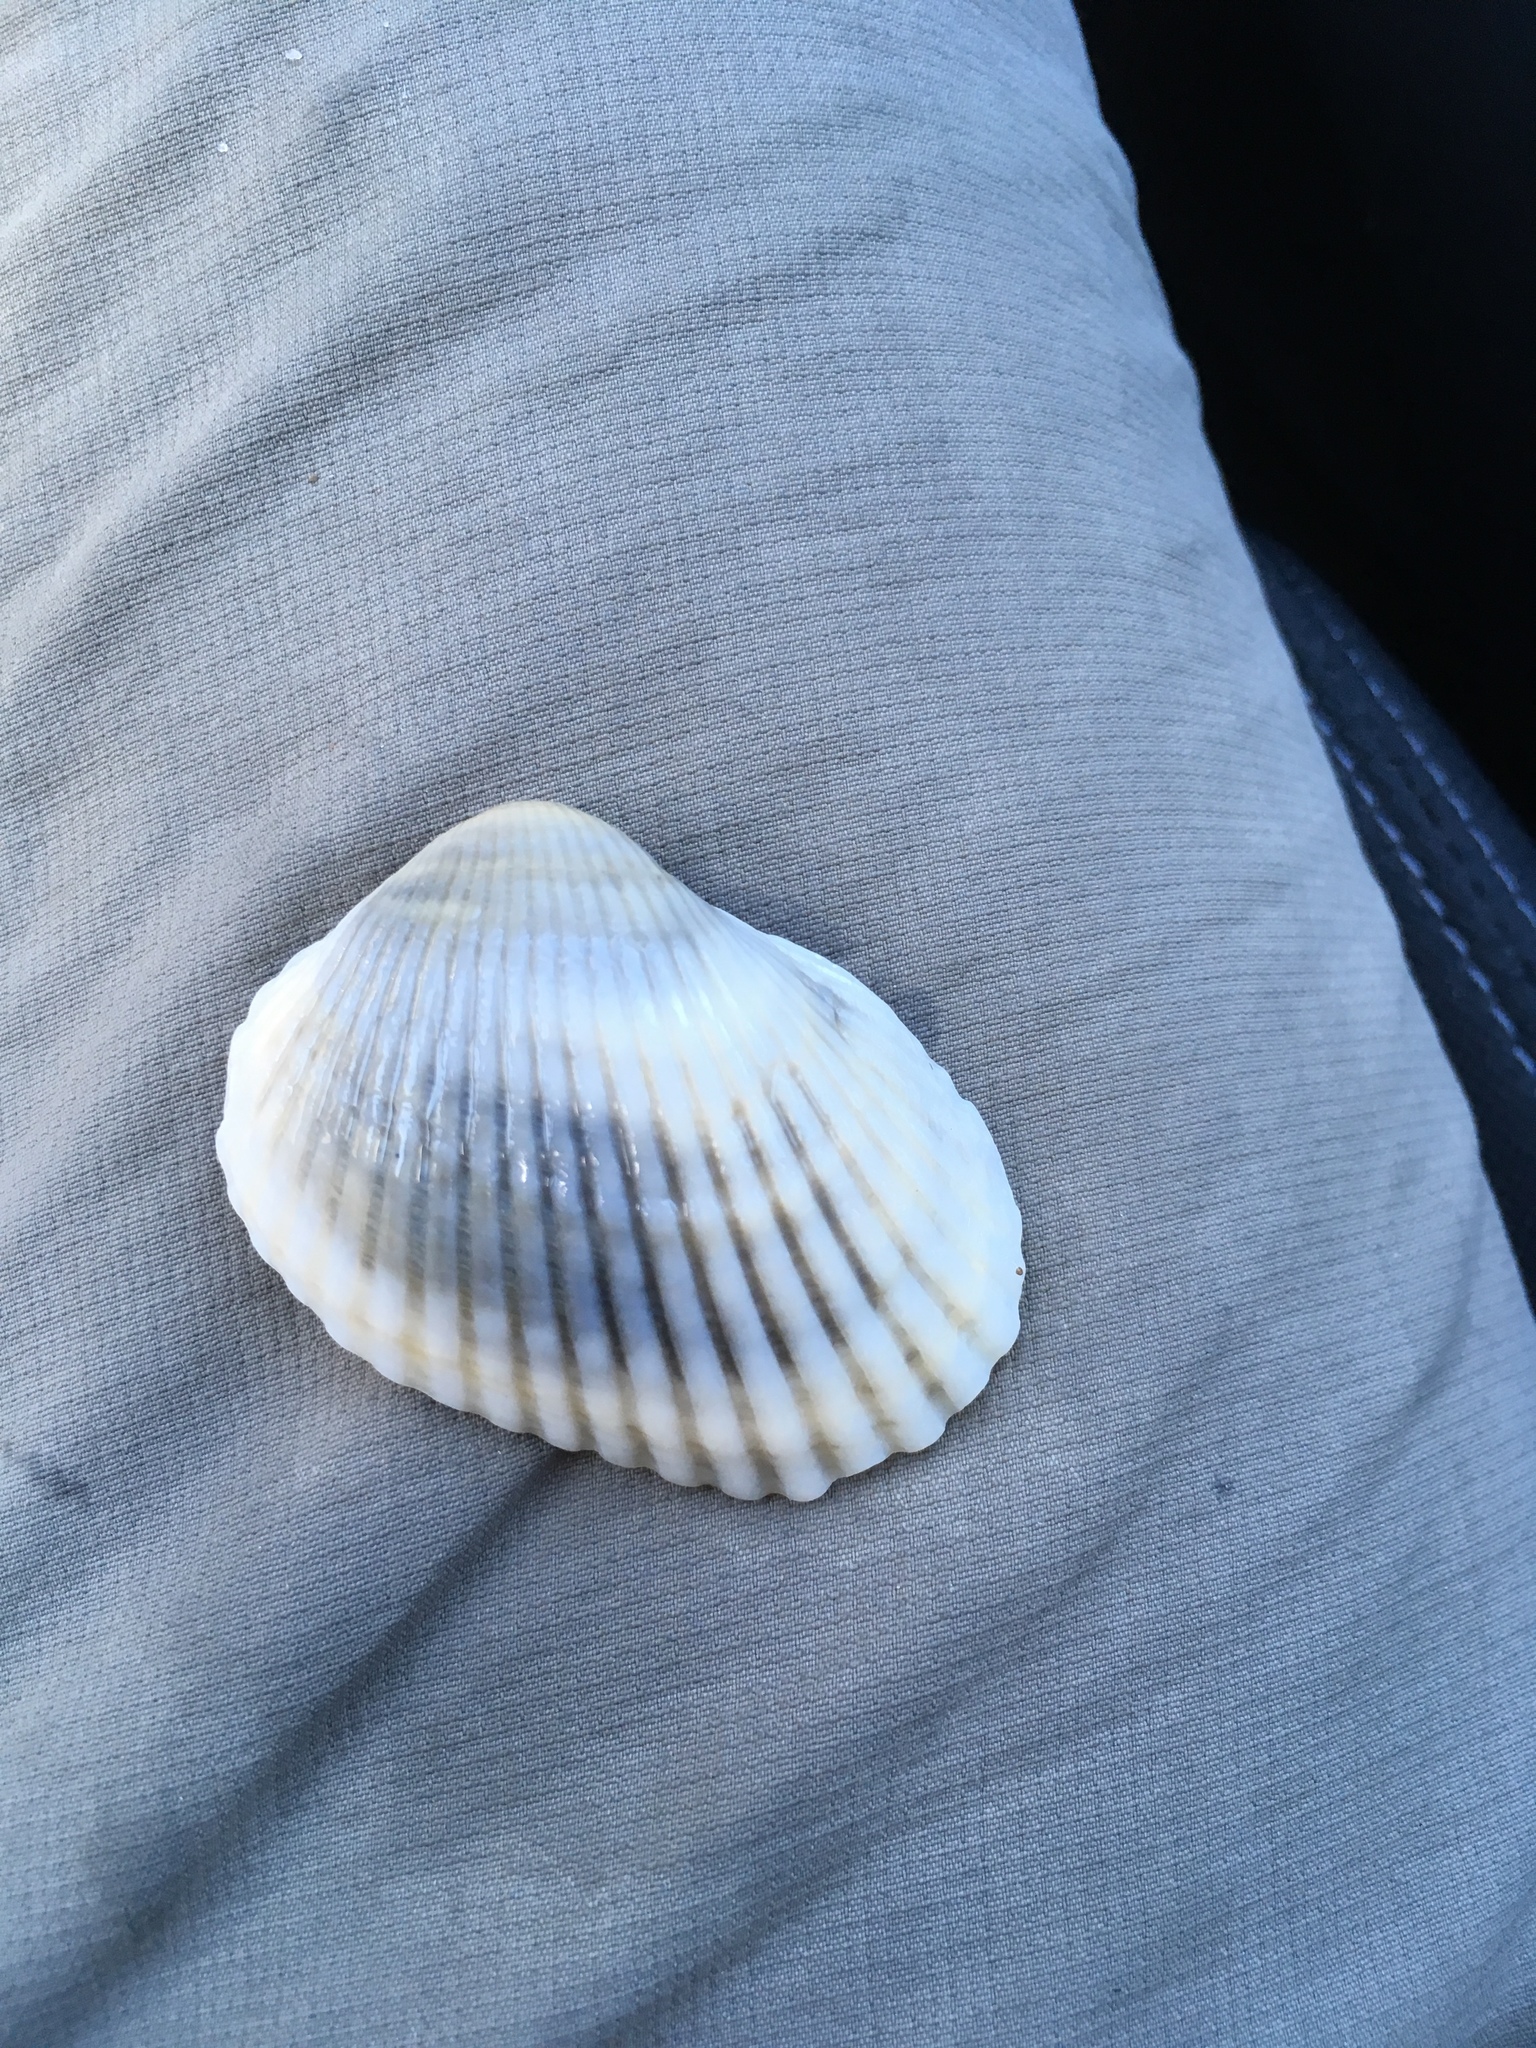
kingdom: Animalia
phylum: Mollusca
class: Bivalvia
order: Arcida
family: Arcidae
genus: Lunarca
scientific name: Lunarca ovalis
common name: Blood ark
